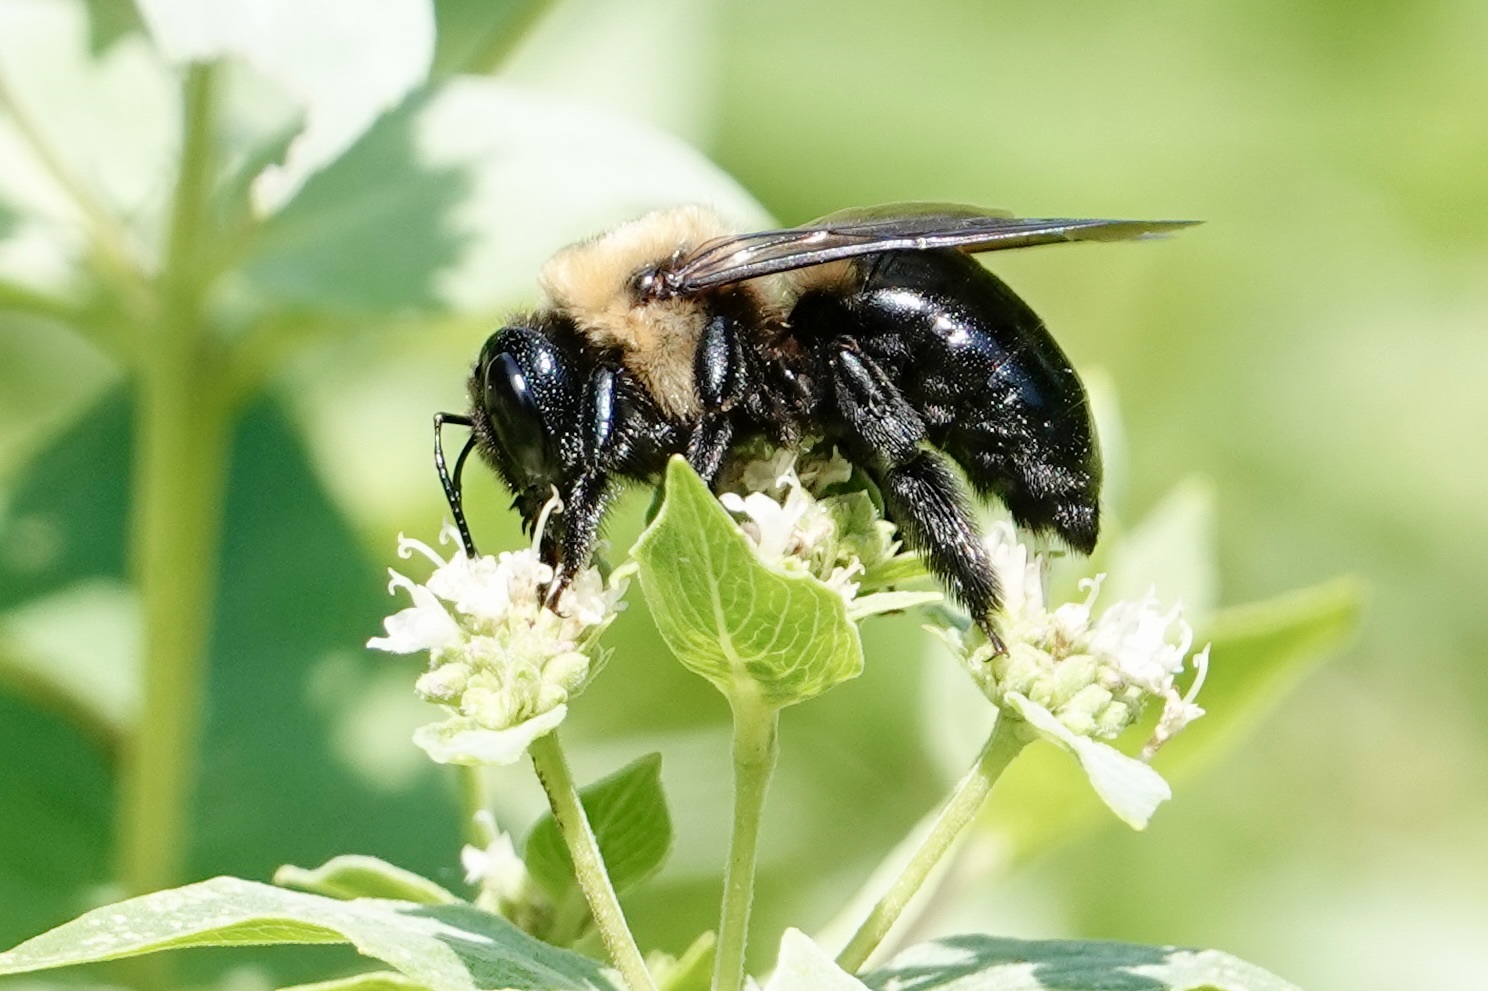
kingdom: Animalia
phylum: Arthropoda
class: Insecta
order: Hymenoptera
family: Apidae
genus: Xylocopa
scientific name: Xylocopa virginica
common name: Carpenter bee
